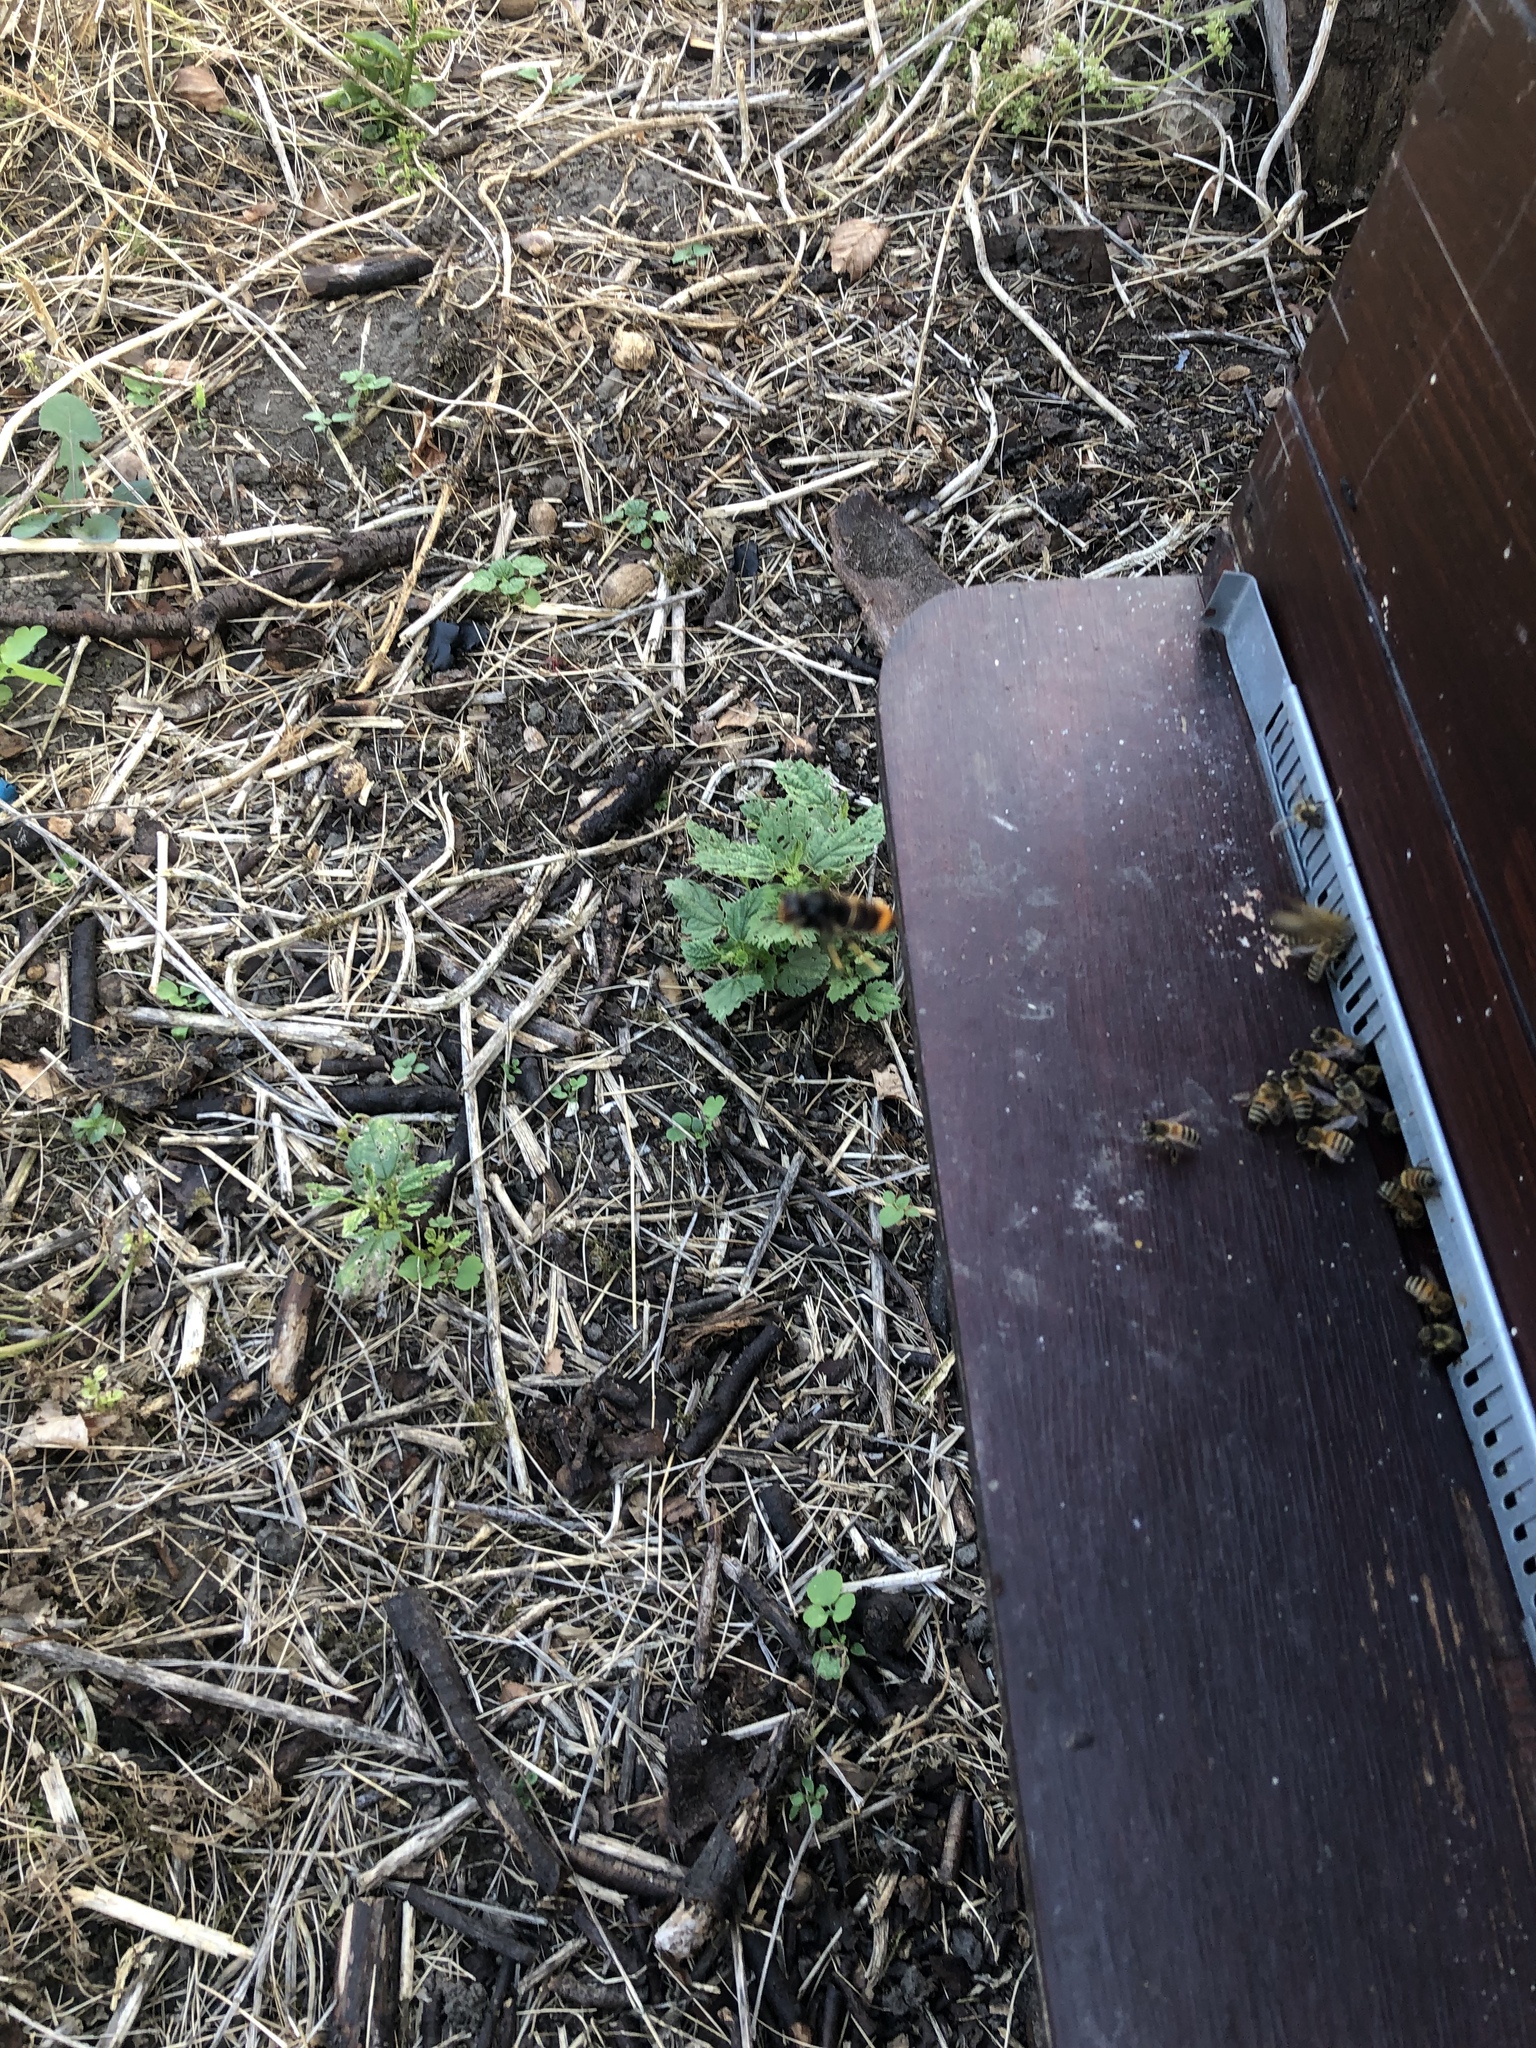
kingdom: Animalia
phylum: Arthropoda
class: Insecta
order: Hymenoptera
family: Vespidae
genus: Vespa
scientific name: Vespa velutina
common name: Asian hornet
